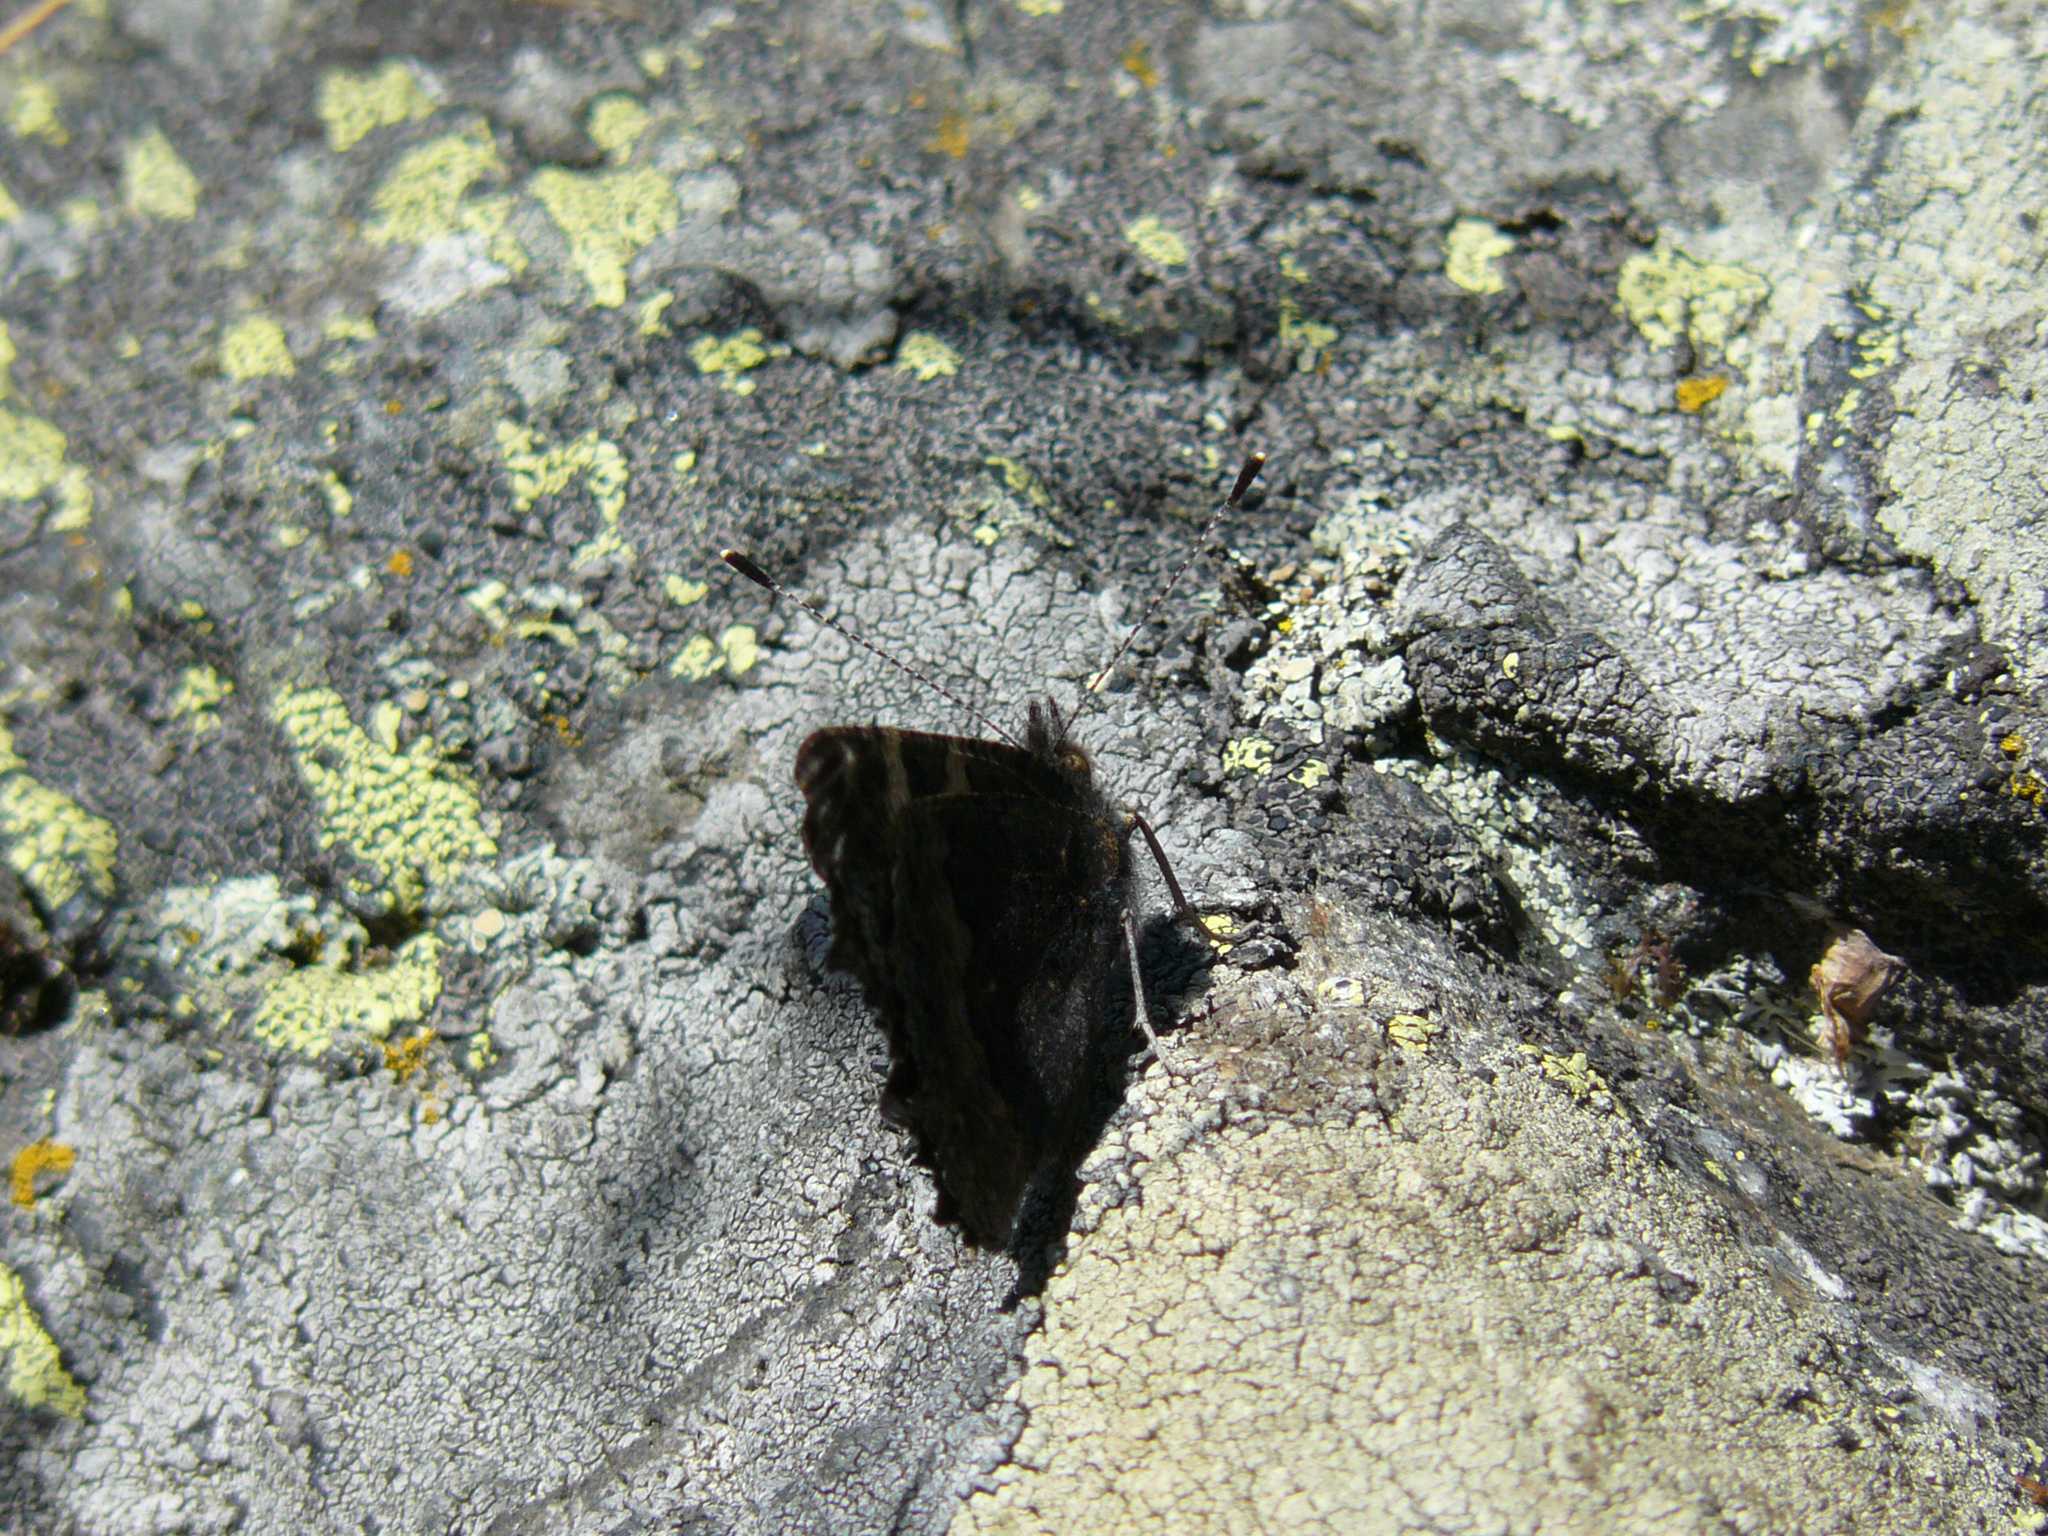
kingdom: Animalia
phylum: Arthropoda
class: Insecta
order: Lepidoptera
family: Nymphalidae
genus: Aglais
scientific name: Aglais urticae
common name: Small tortoiseshell
